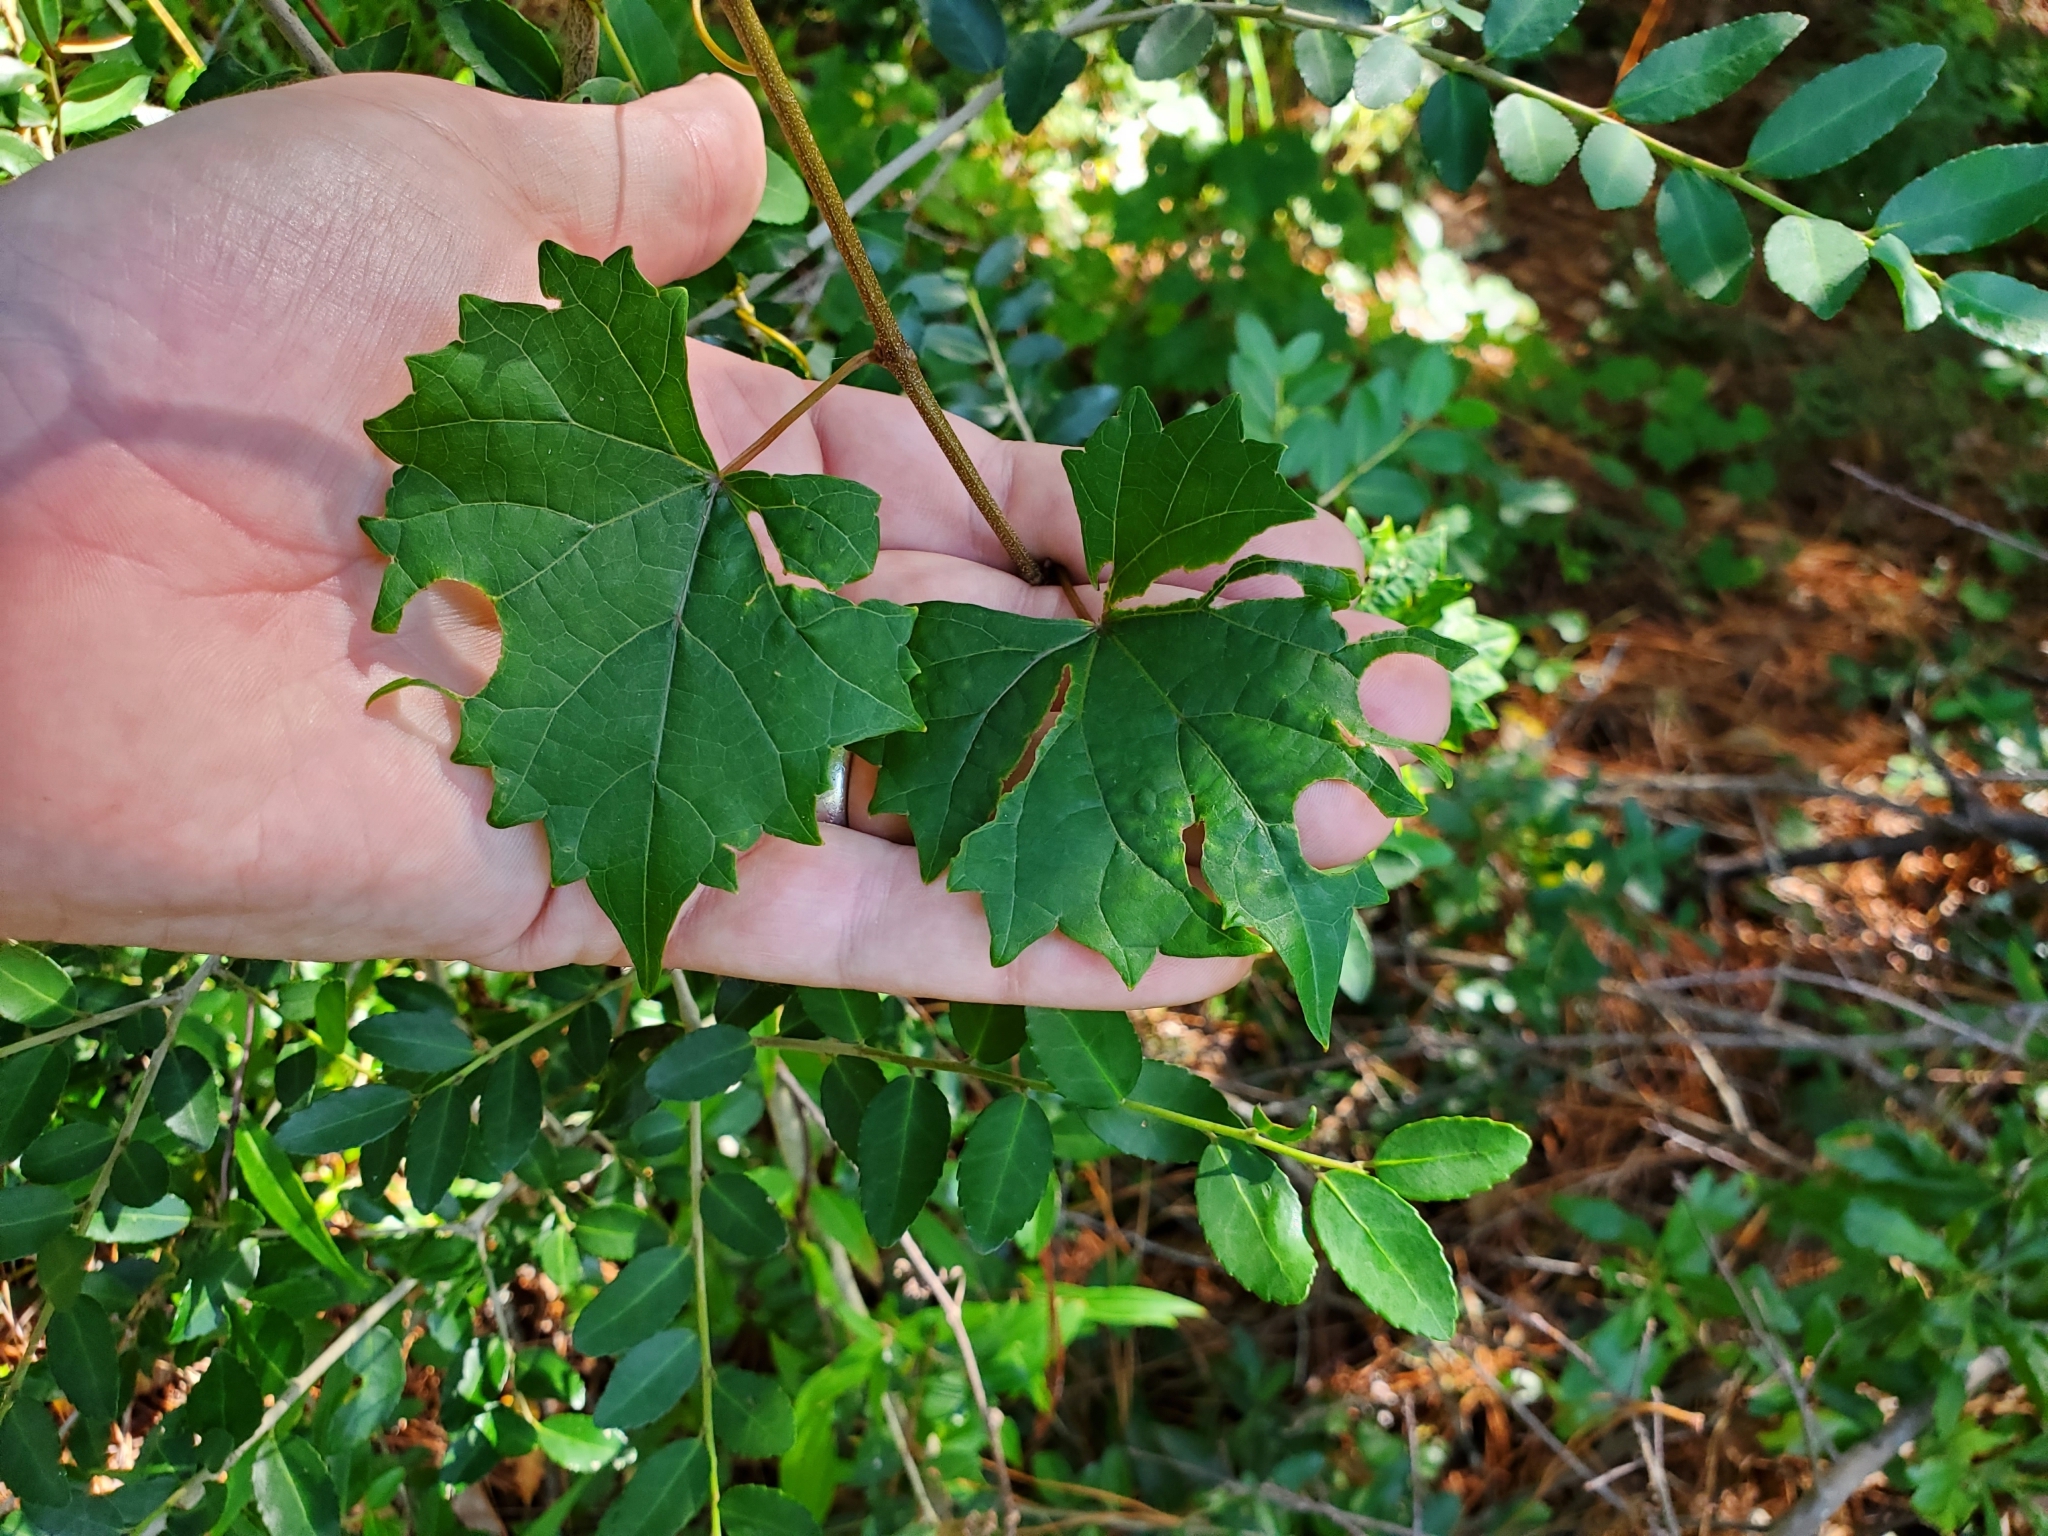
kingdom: Plantae
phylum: Tracheophyta
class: Magnoliopsida
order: Vitales
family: Vitaceae
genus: Vitis
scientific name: Vitis rotundifolia
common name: Muscadine grape
